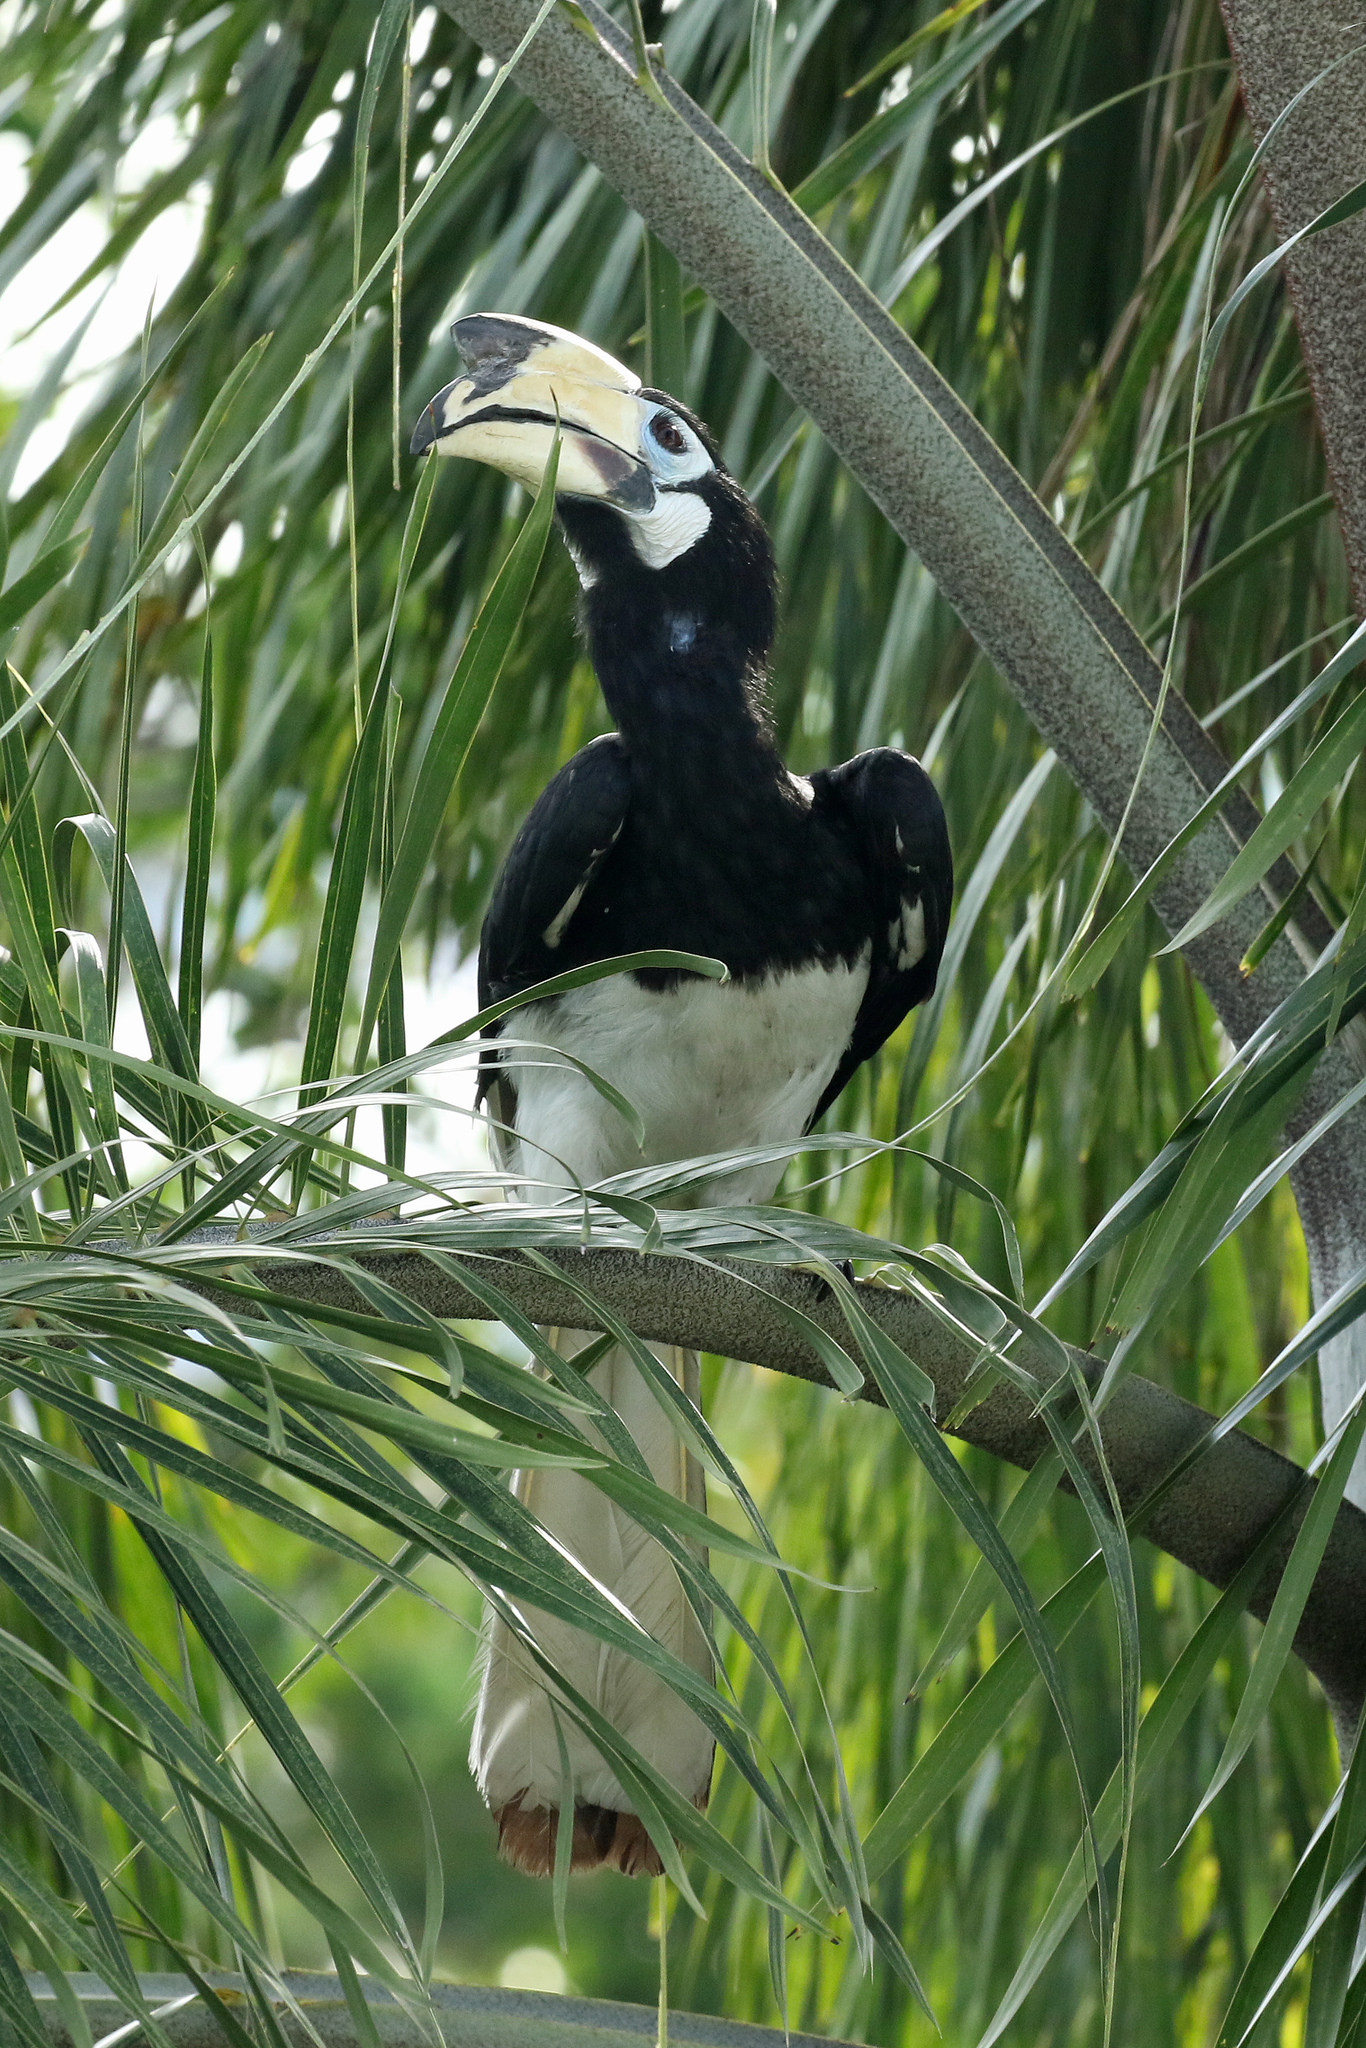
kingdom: Animalia
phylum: Chordata
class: Aves
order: Bucerotiformes
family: Bucerotidae
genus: Anthracoceros
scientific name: Anthracoceros albirostris
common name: Oriental pied-hornbill
